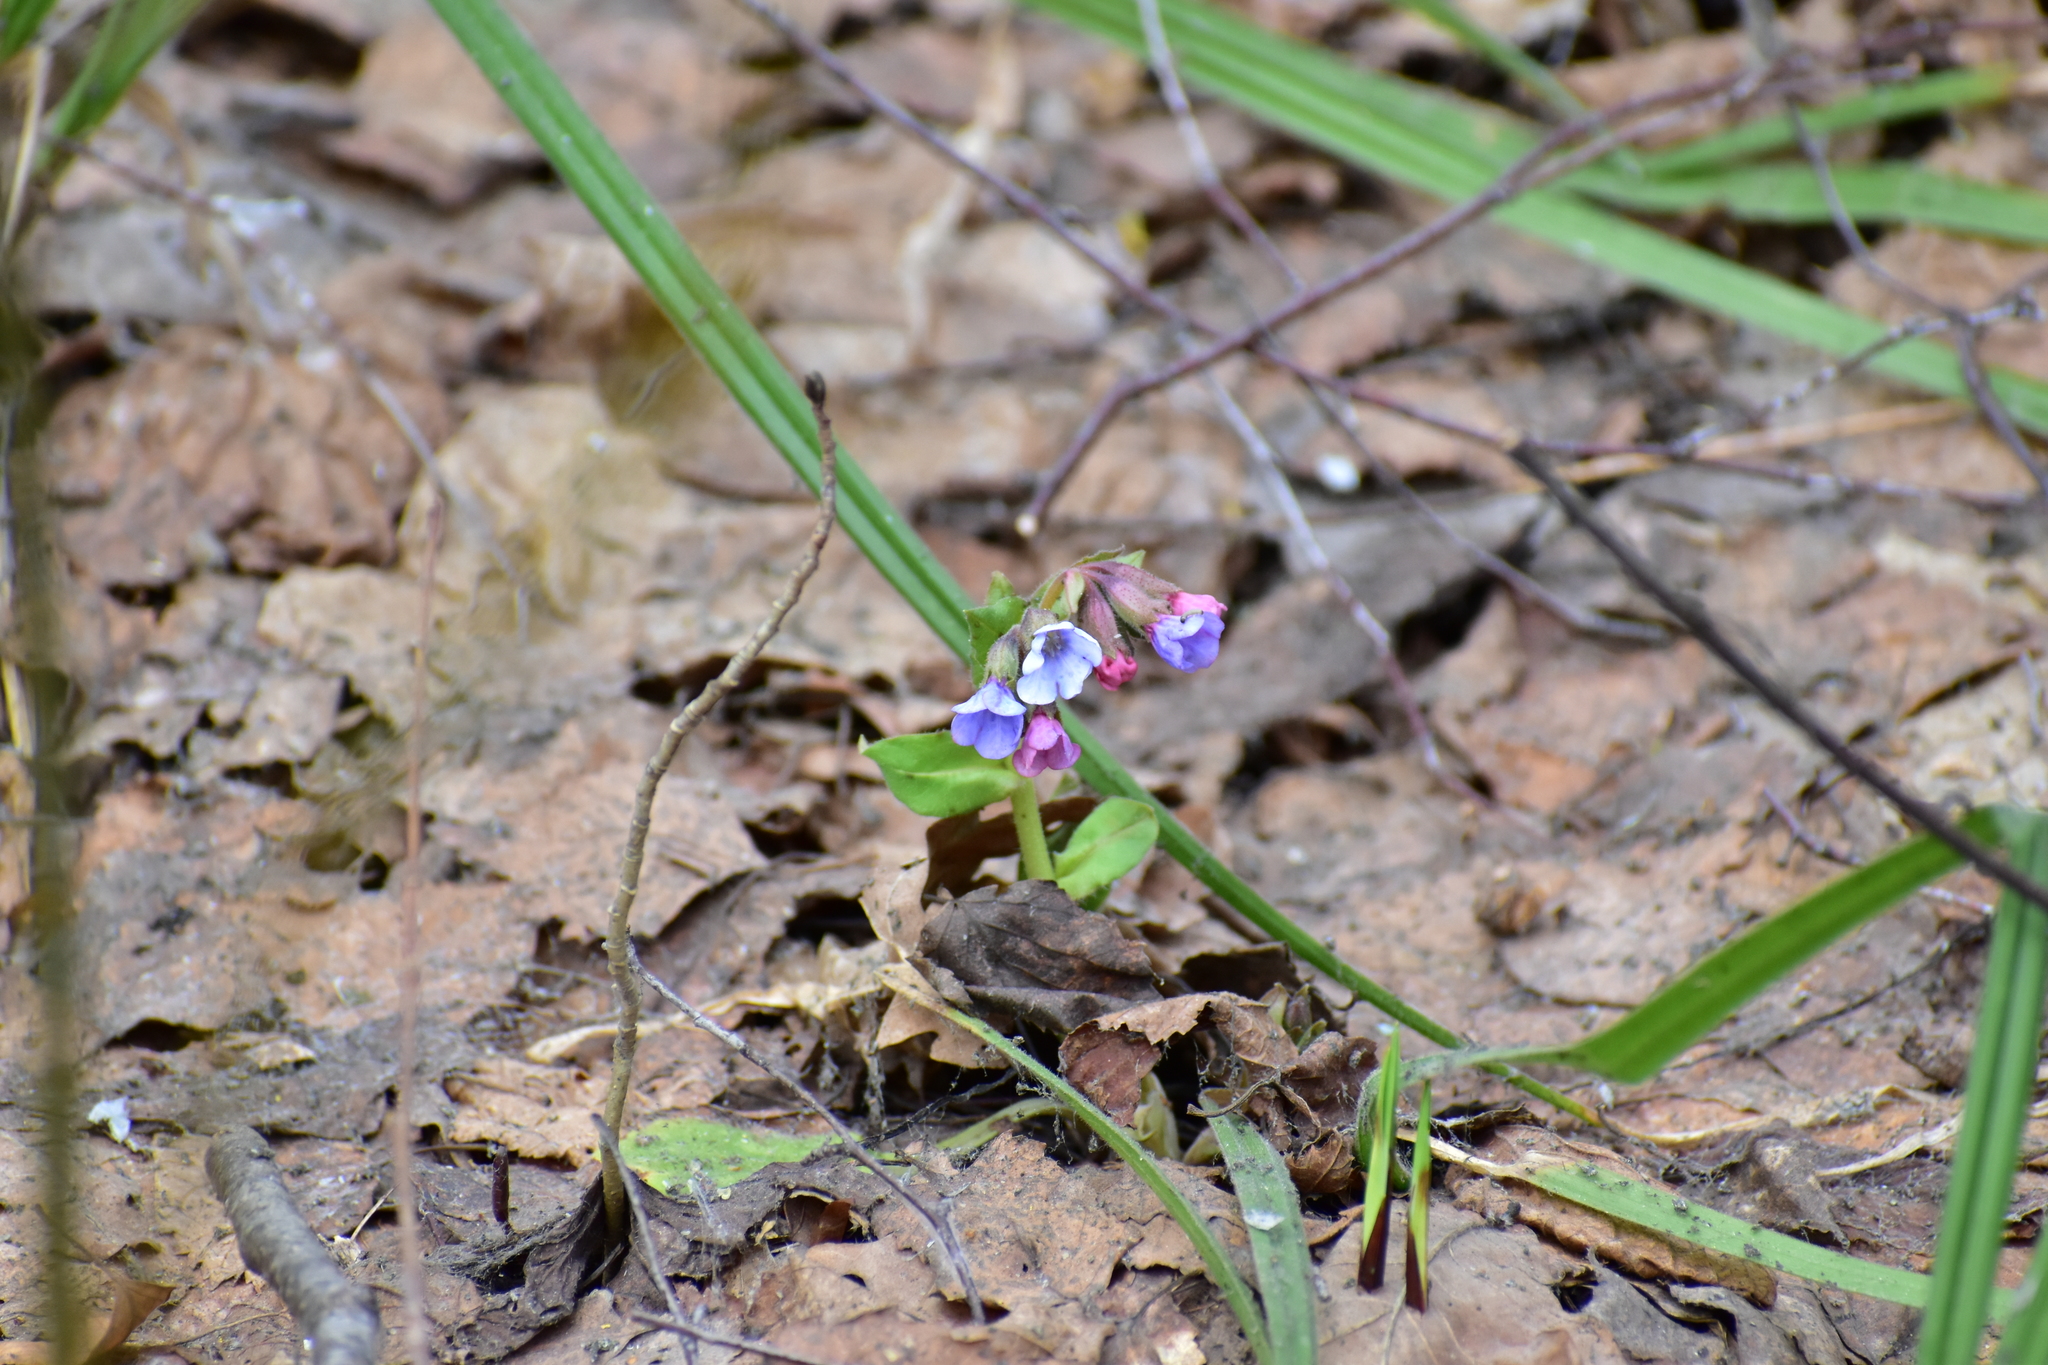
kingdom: Plantae
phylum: Tracheophyta
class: Magnoliopsida
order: Boraginales
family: Boraginaceae
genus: Pulmonaria
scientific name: Pulmonaria obscura
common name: Suffolk lungwort
